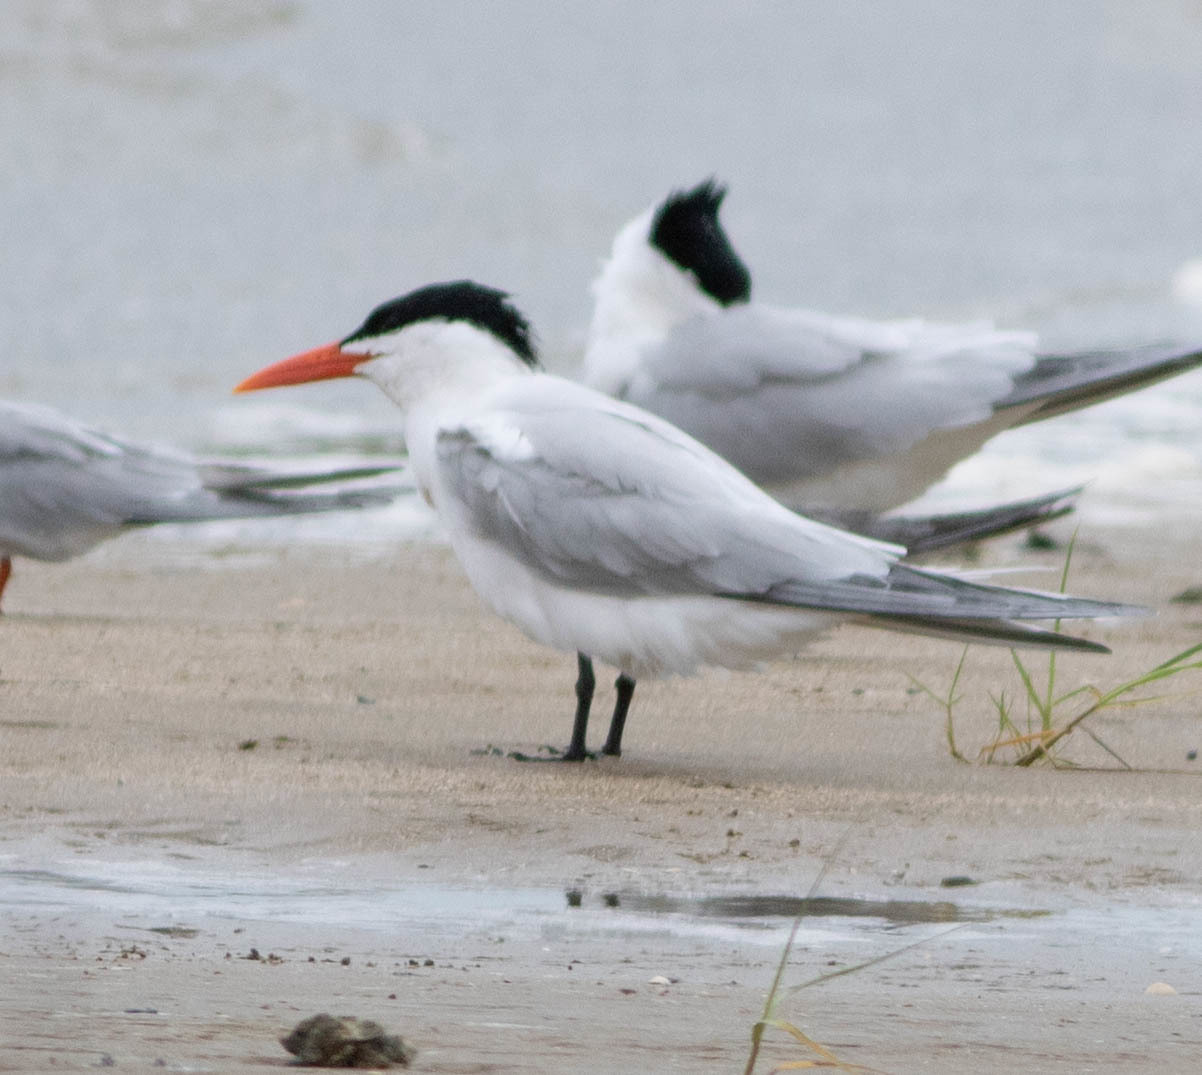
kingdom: Animalia
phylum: Chordata
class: Aves
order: Charadriiformes
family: Laridae
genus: Hydroprogne
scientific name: Hydroprogne caspia
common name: Caspian tern
